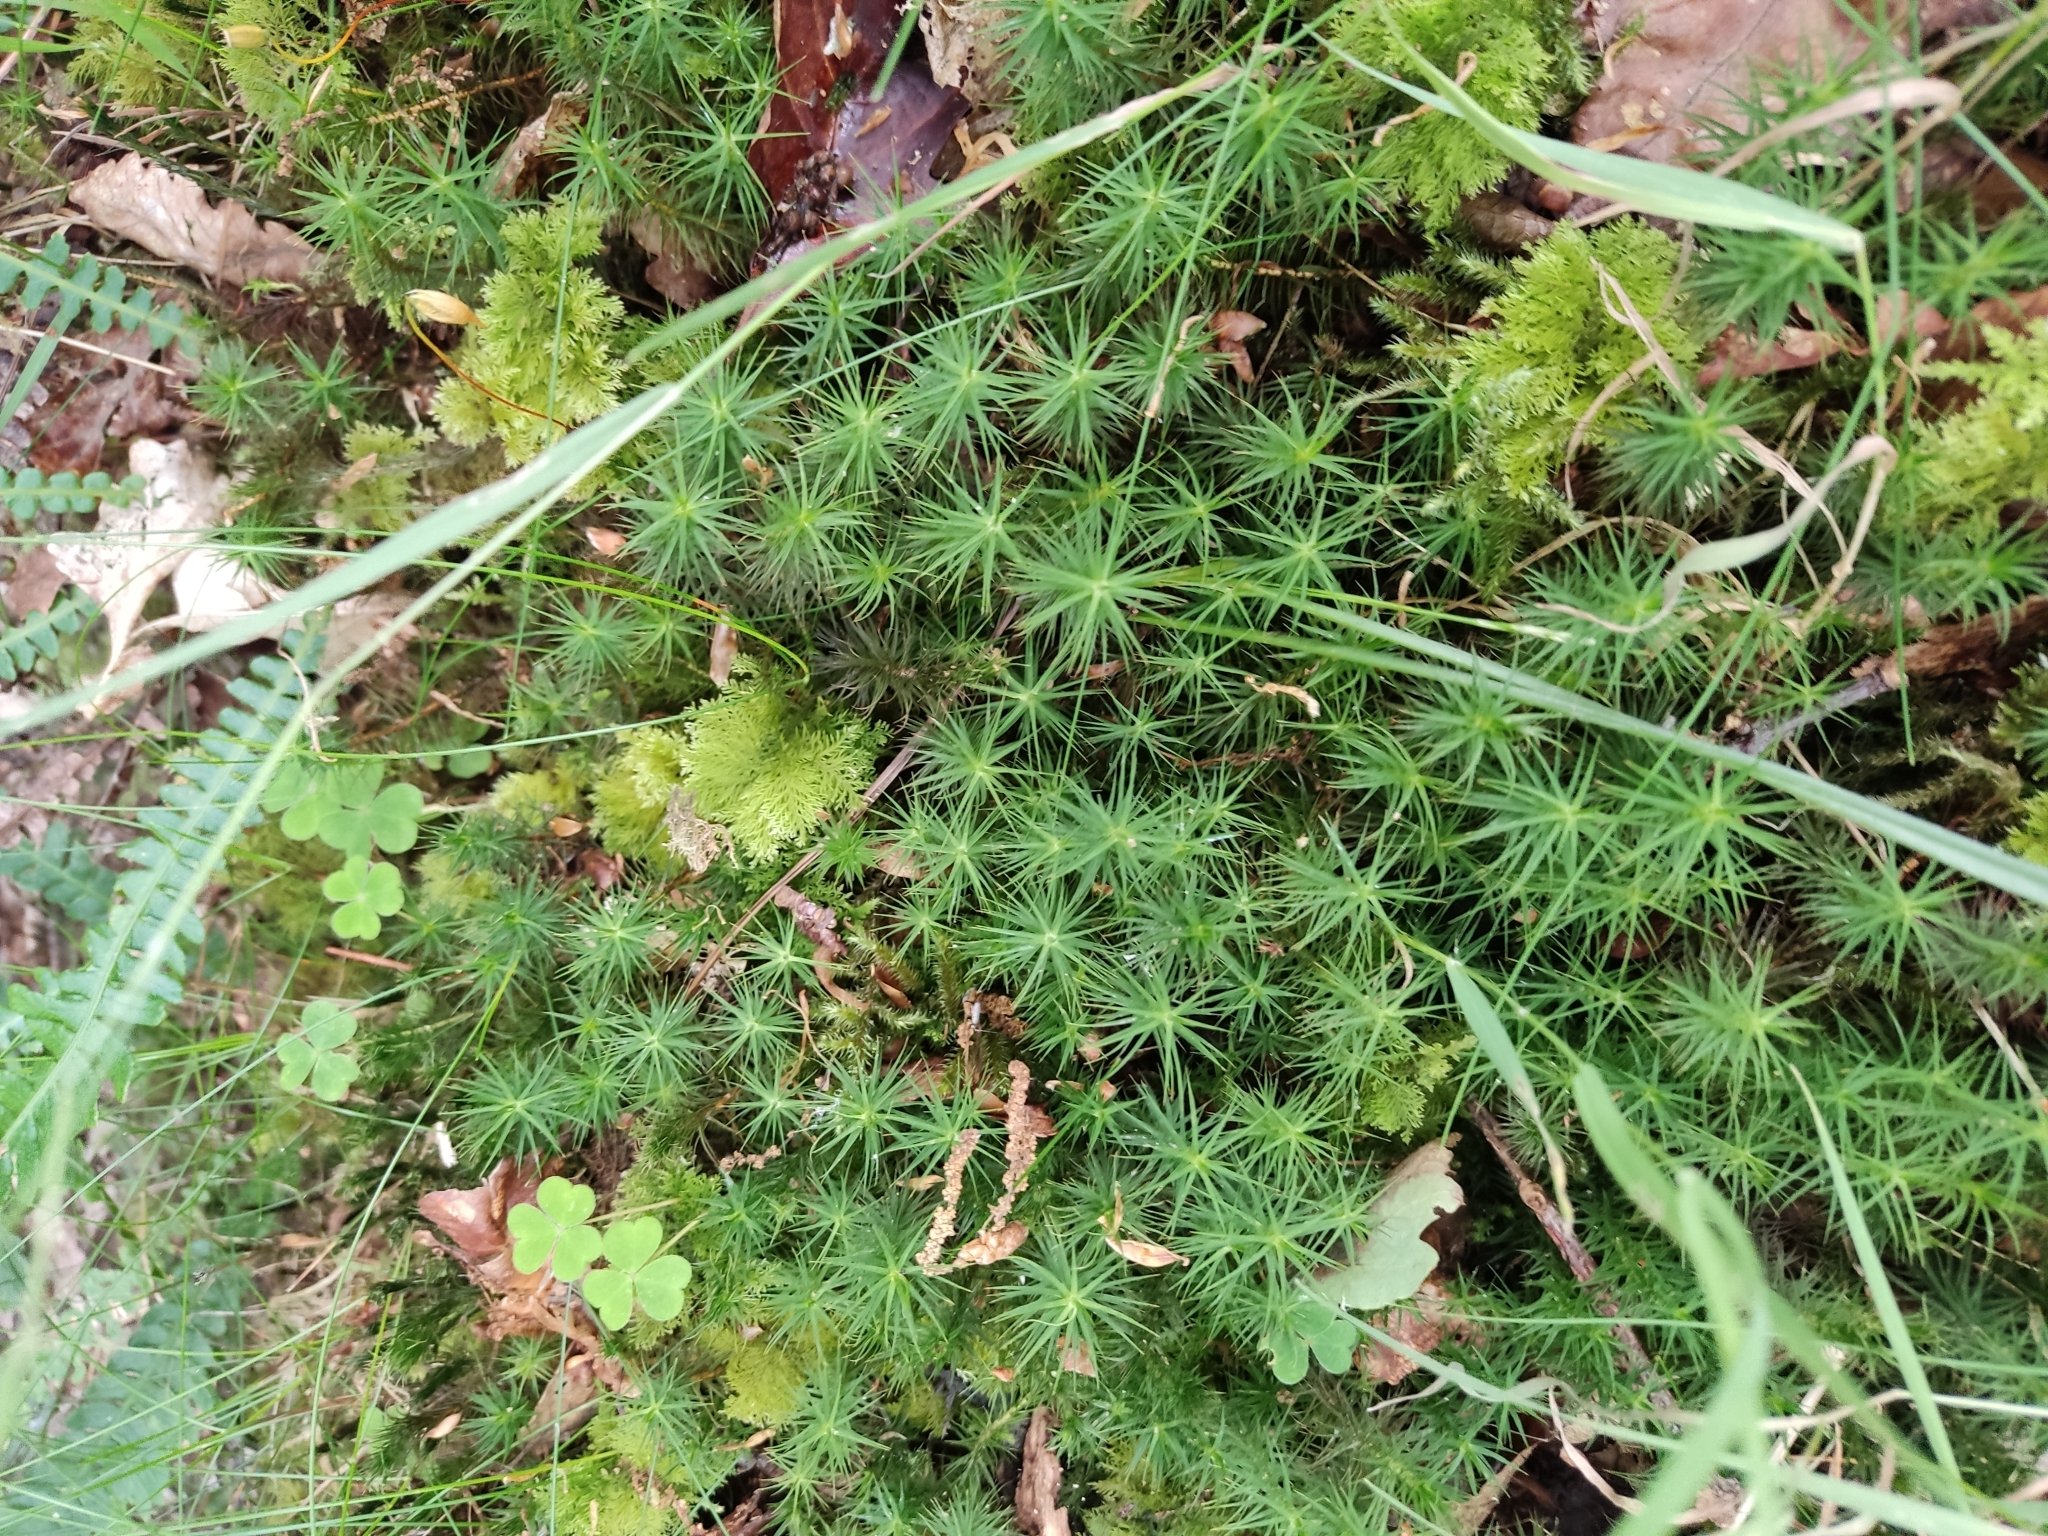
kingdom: Plantae
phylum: Bryophyta
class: Polytrichopsida
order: Polytrichales
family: Polytrichaceae
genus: Polytrichum
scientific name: Polytrichum commune
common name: Common haircap
